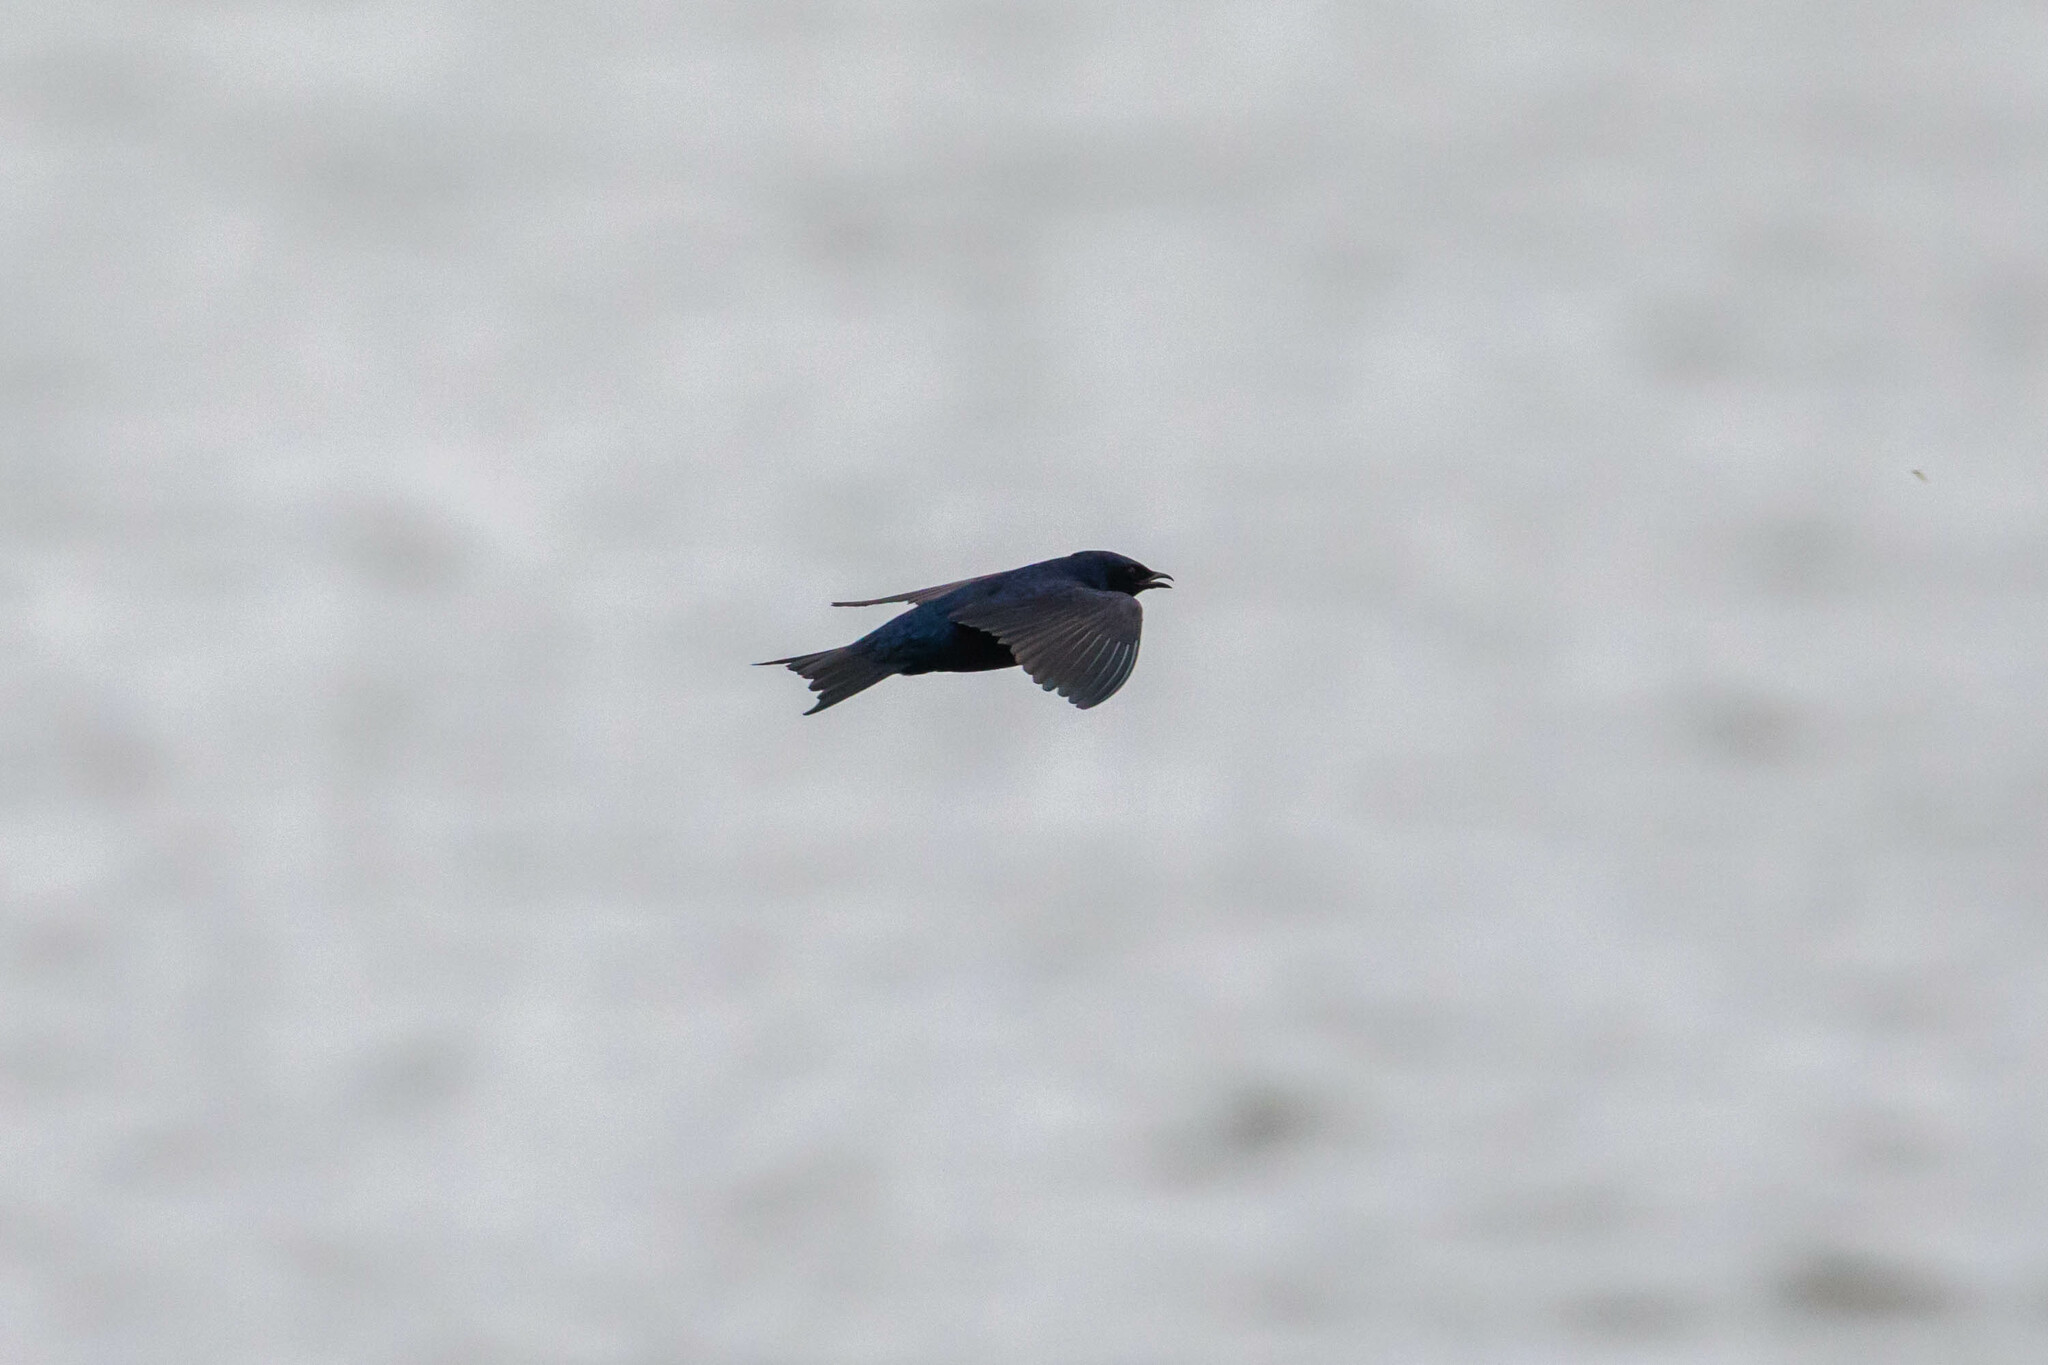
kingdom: Animalia
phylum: Chordata
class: Aves
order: Passeriformes
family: Hirundinidae
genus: Progne
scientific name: Progne subis
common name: Purple martin
